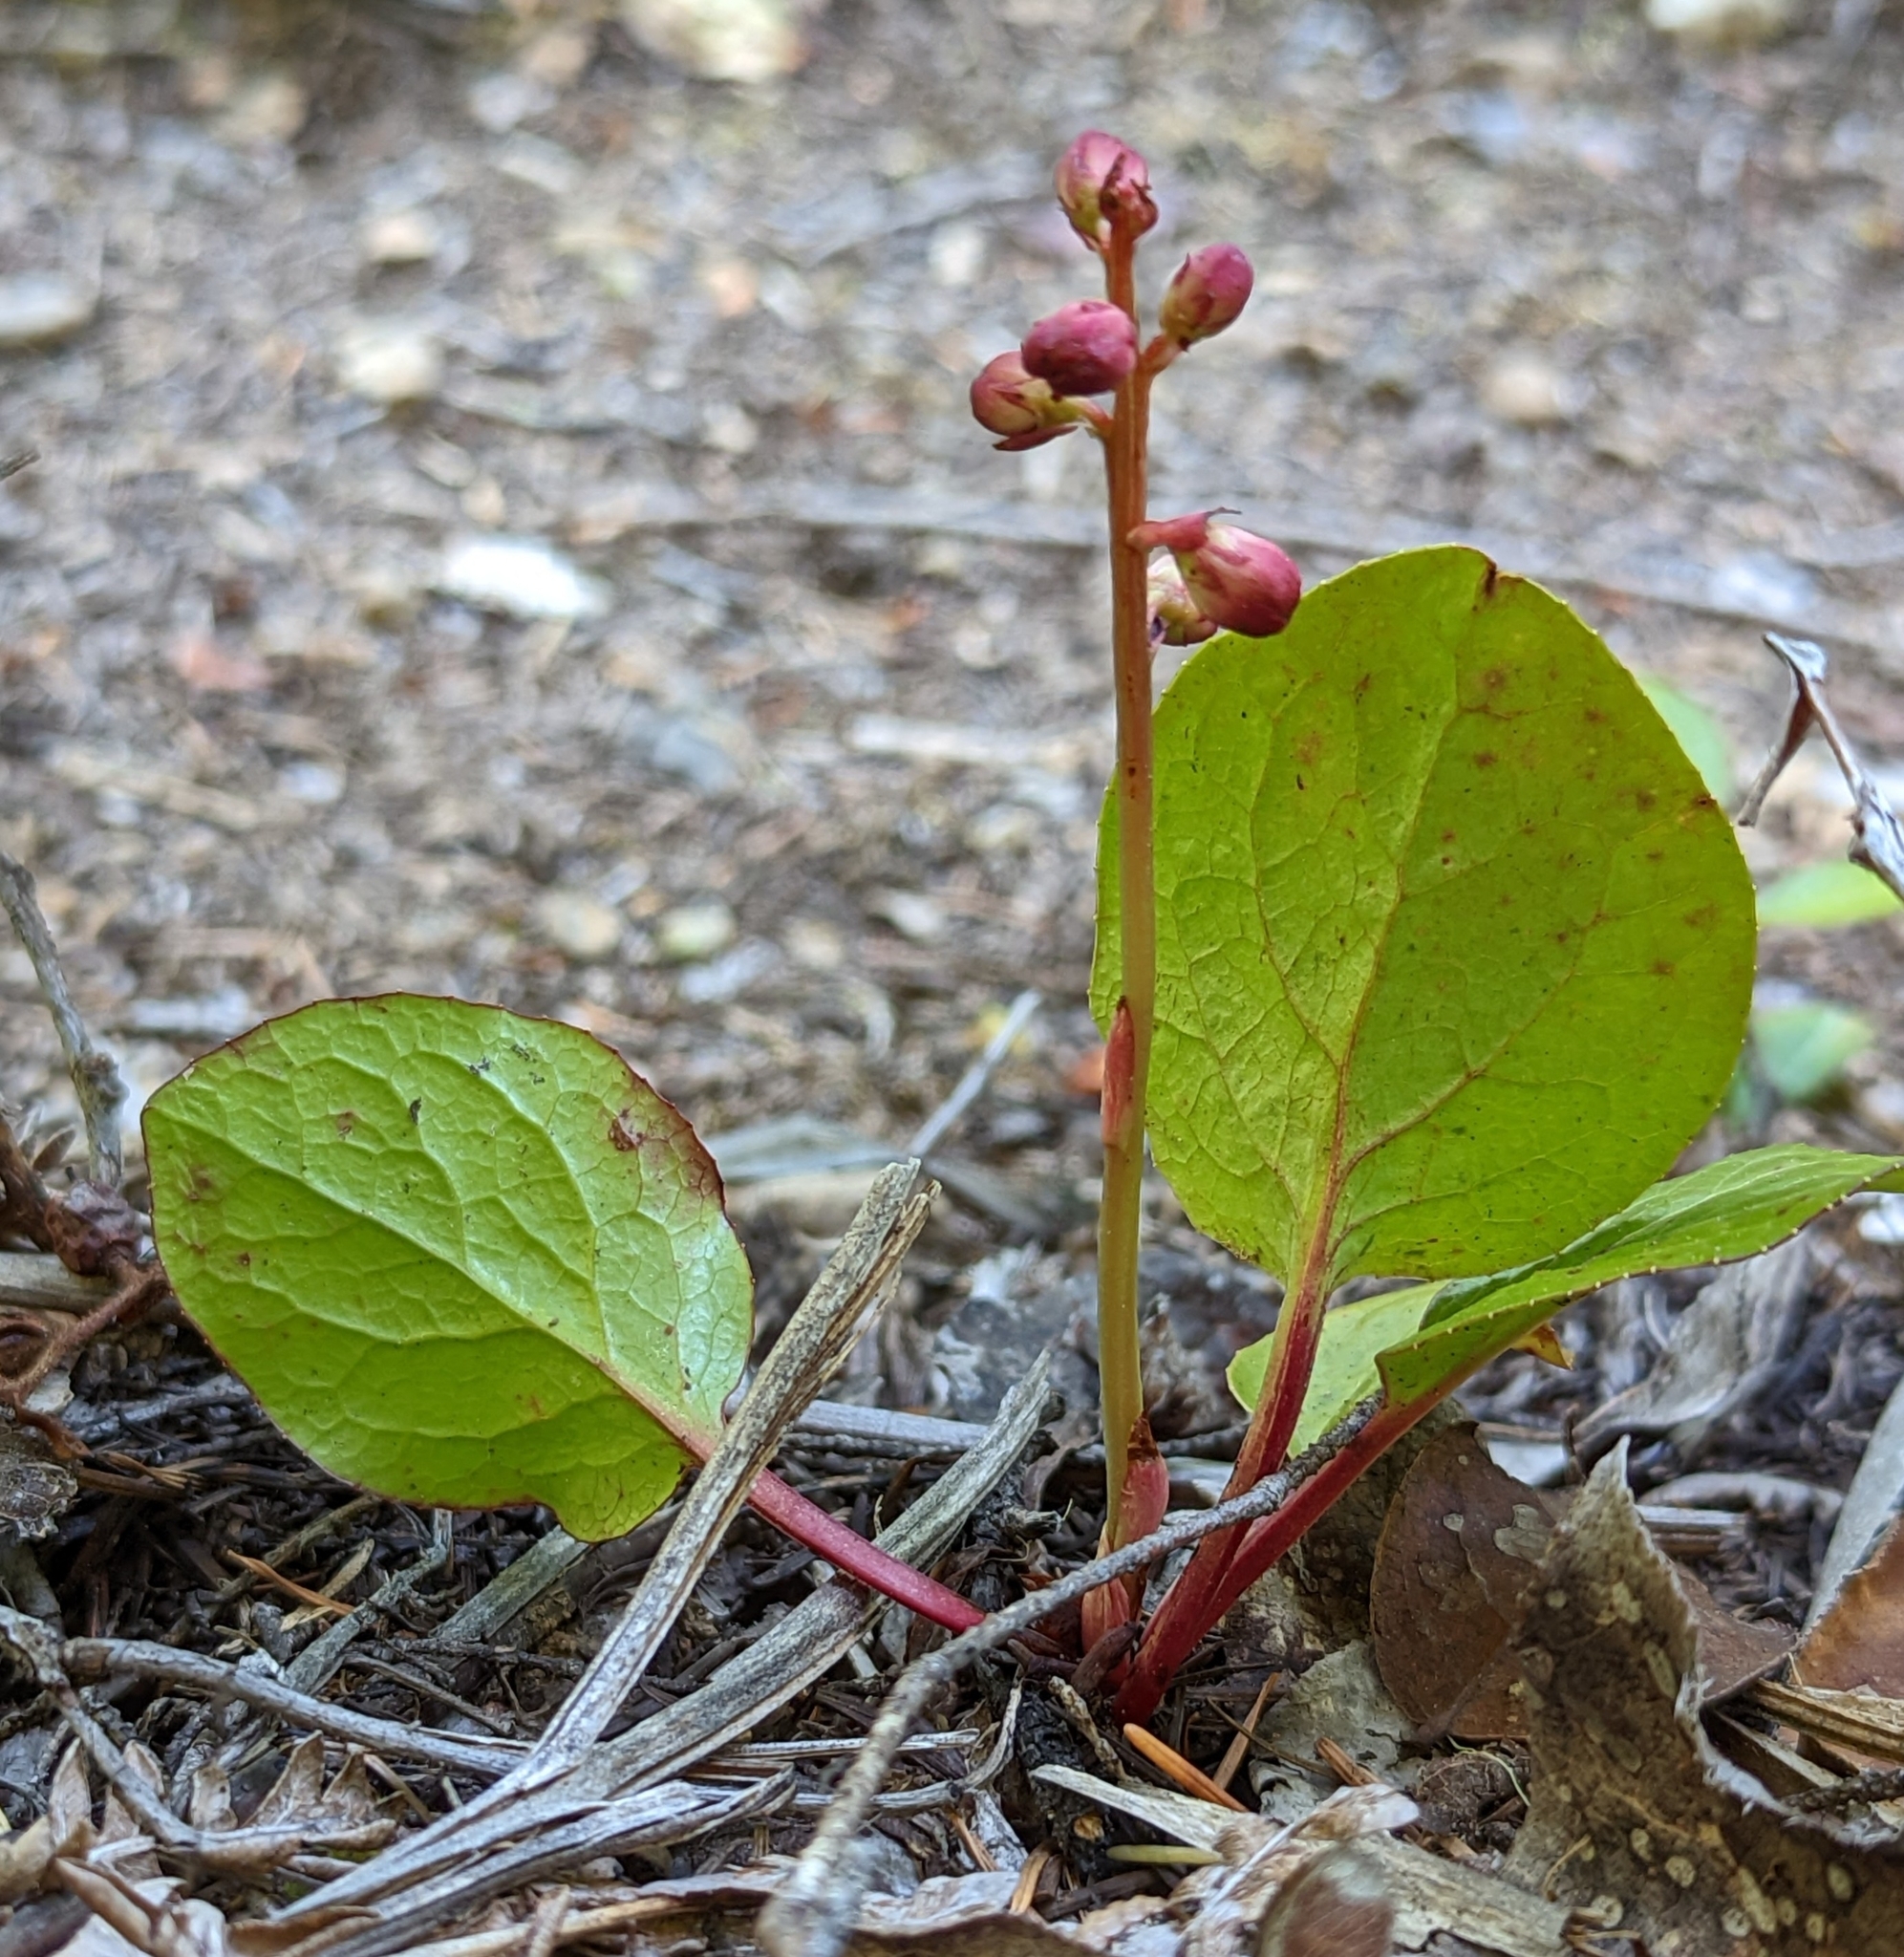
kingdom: Plantae
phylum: Tracheophyta
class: Magnoliopsida
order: Ericales
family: Ericaceae
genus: Pyrola
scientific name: Pyrola asarifolia
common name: Bog wintergreen
